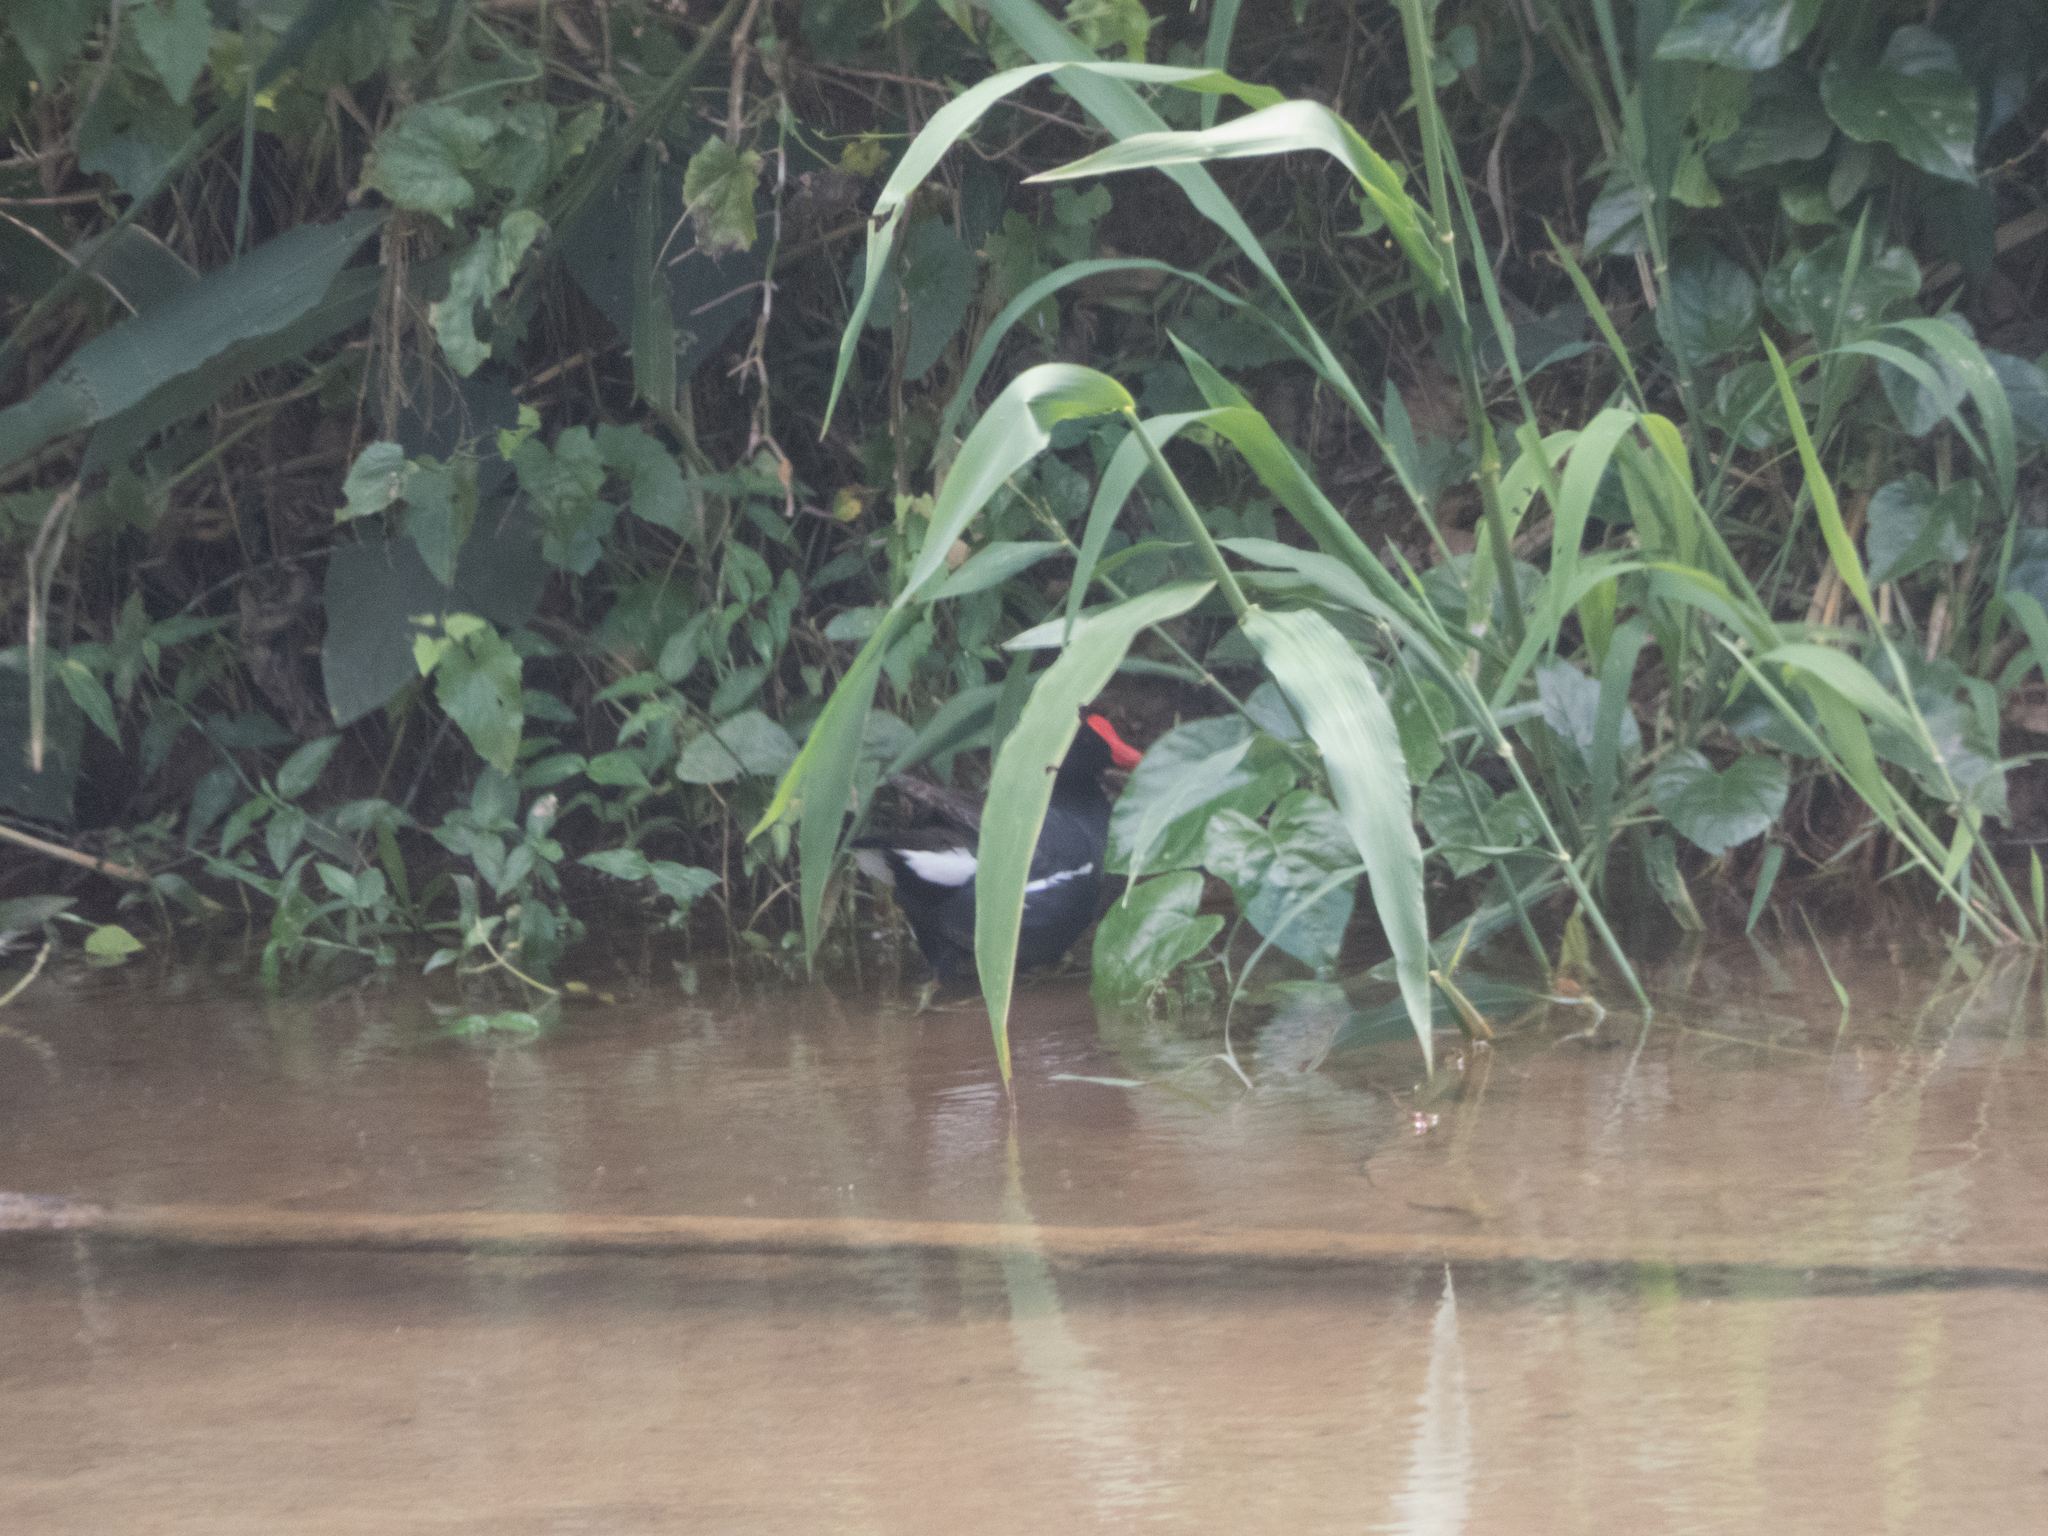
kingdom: Animalia
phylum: Chordata
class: Aves
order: Gruiformes
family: Rallidae
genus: Gallinula
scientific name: Gallinula chloropus
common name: Common moorhen
